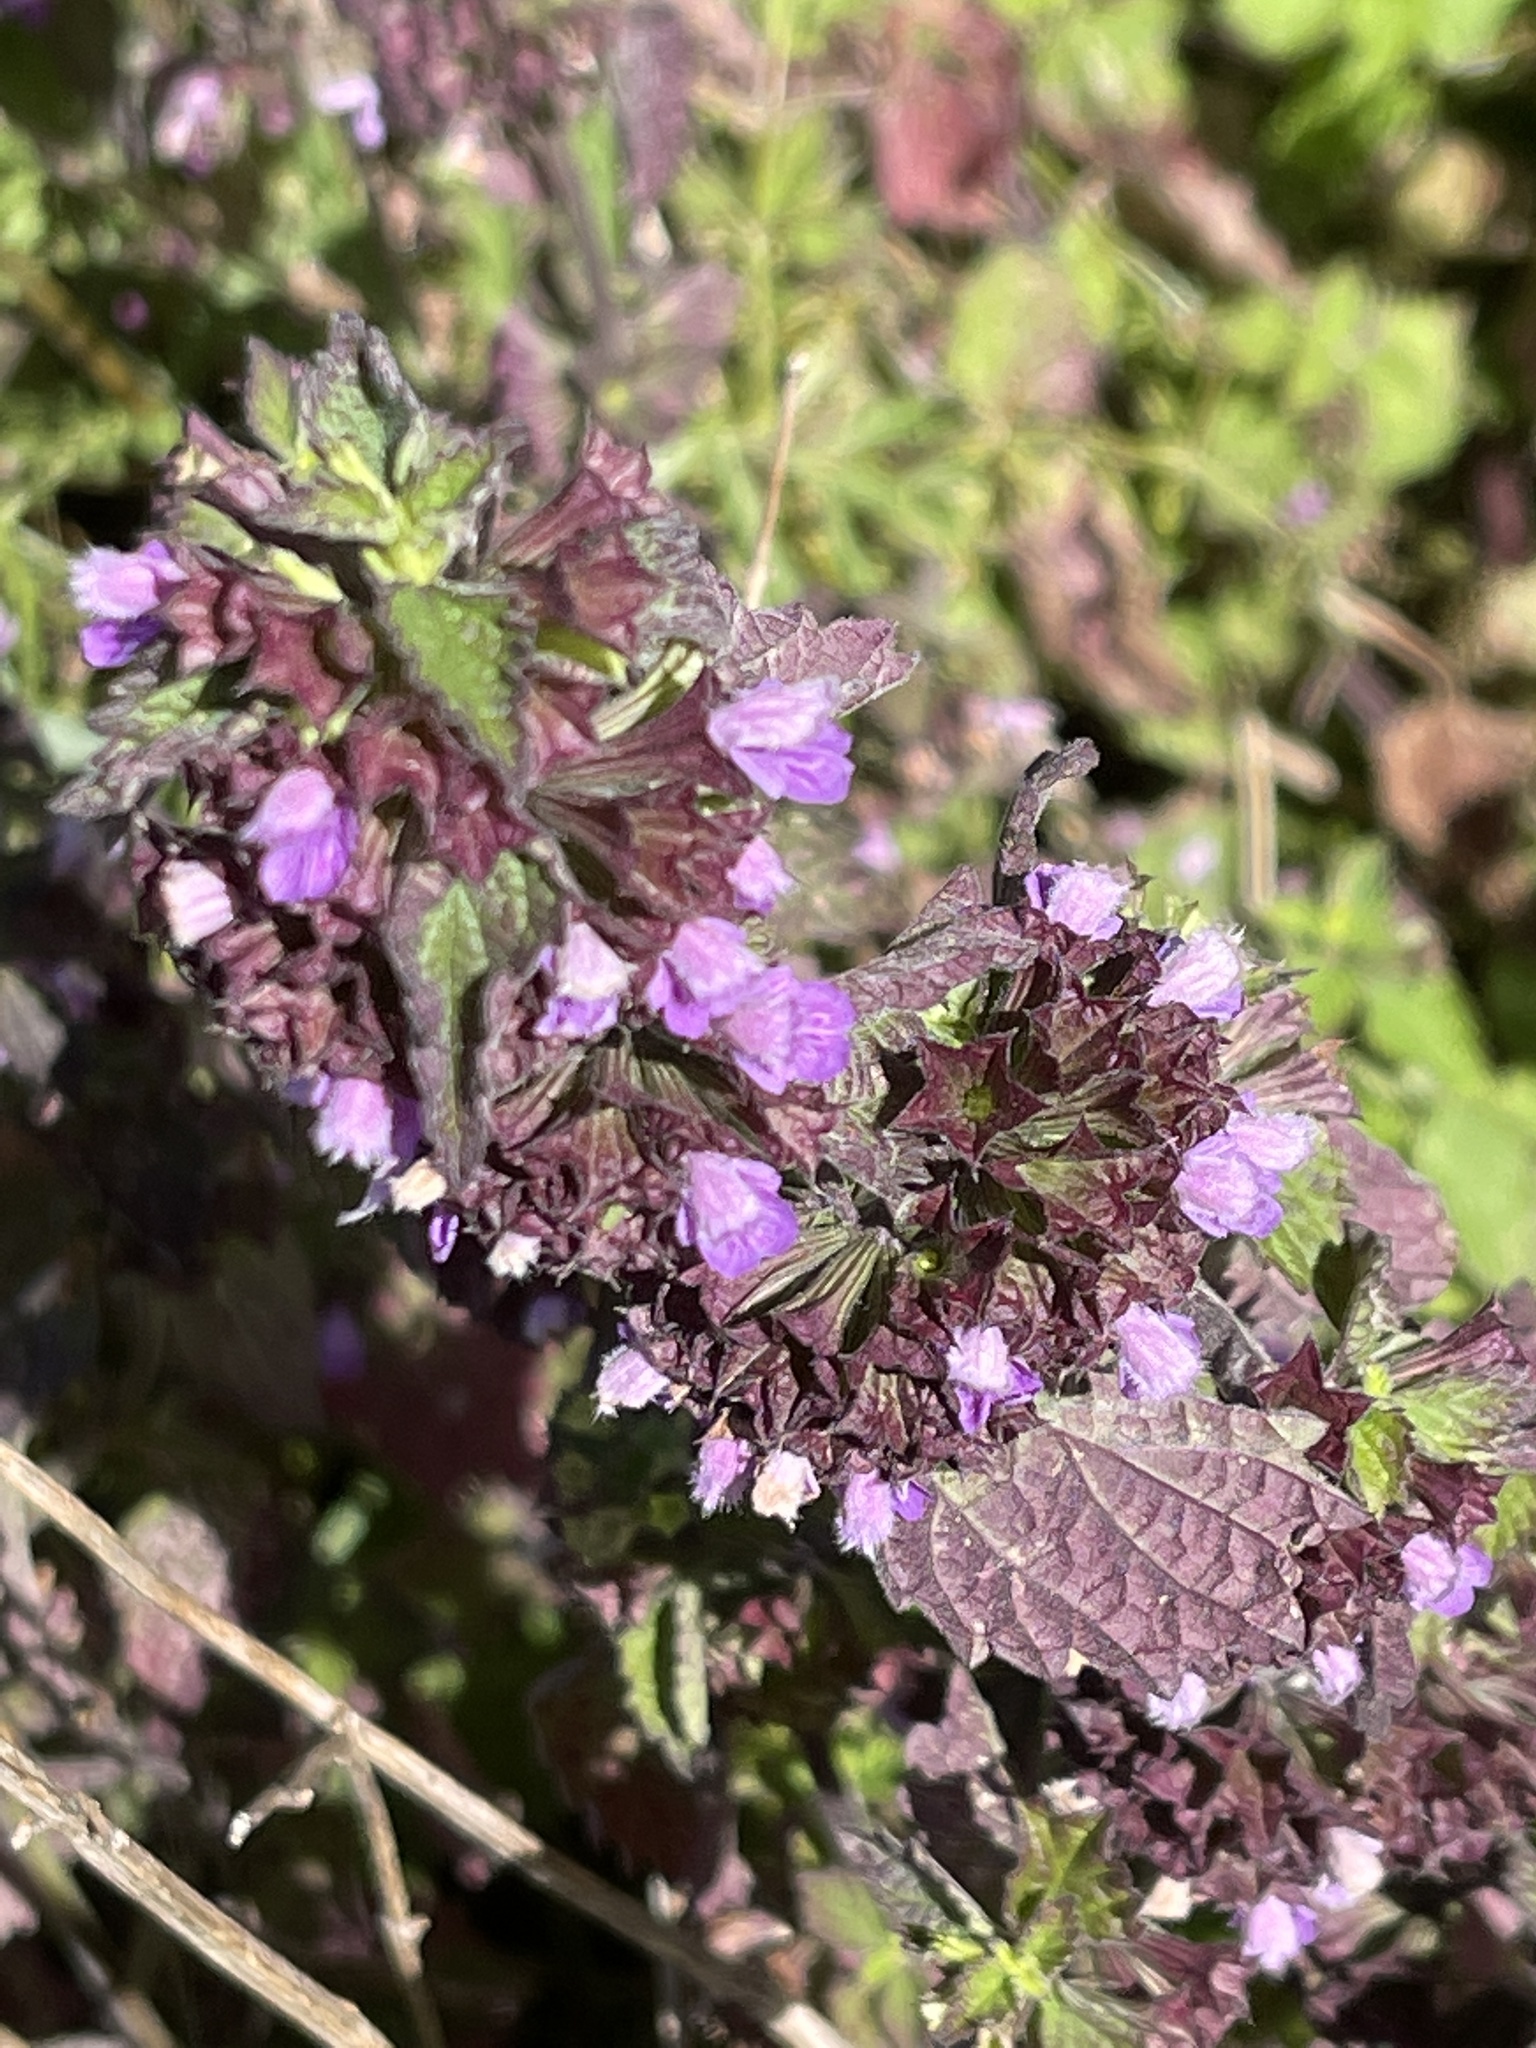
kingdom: Plantae
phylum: Tracheophyta
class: Magnoliopsida
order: Lamiales
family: Lamiaceae
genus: Ballota
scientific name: Ballota nigra
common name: Black horehound
